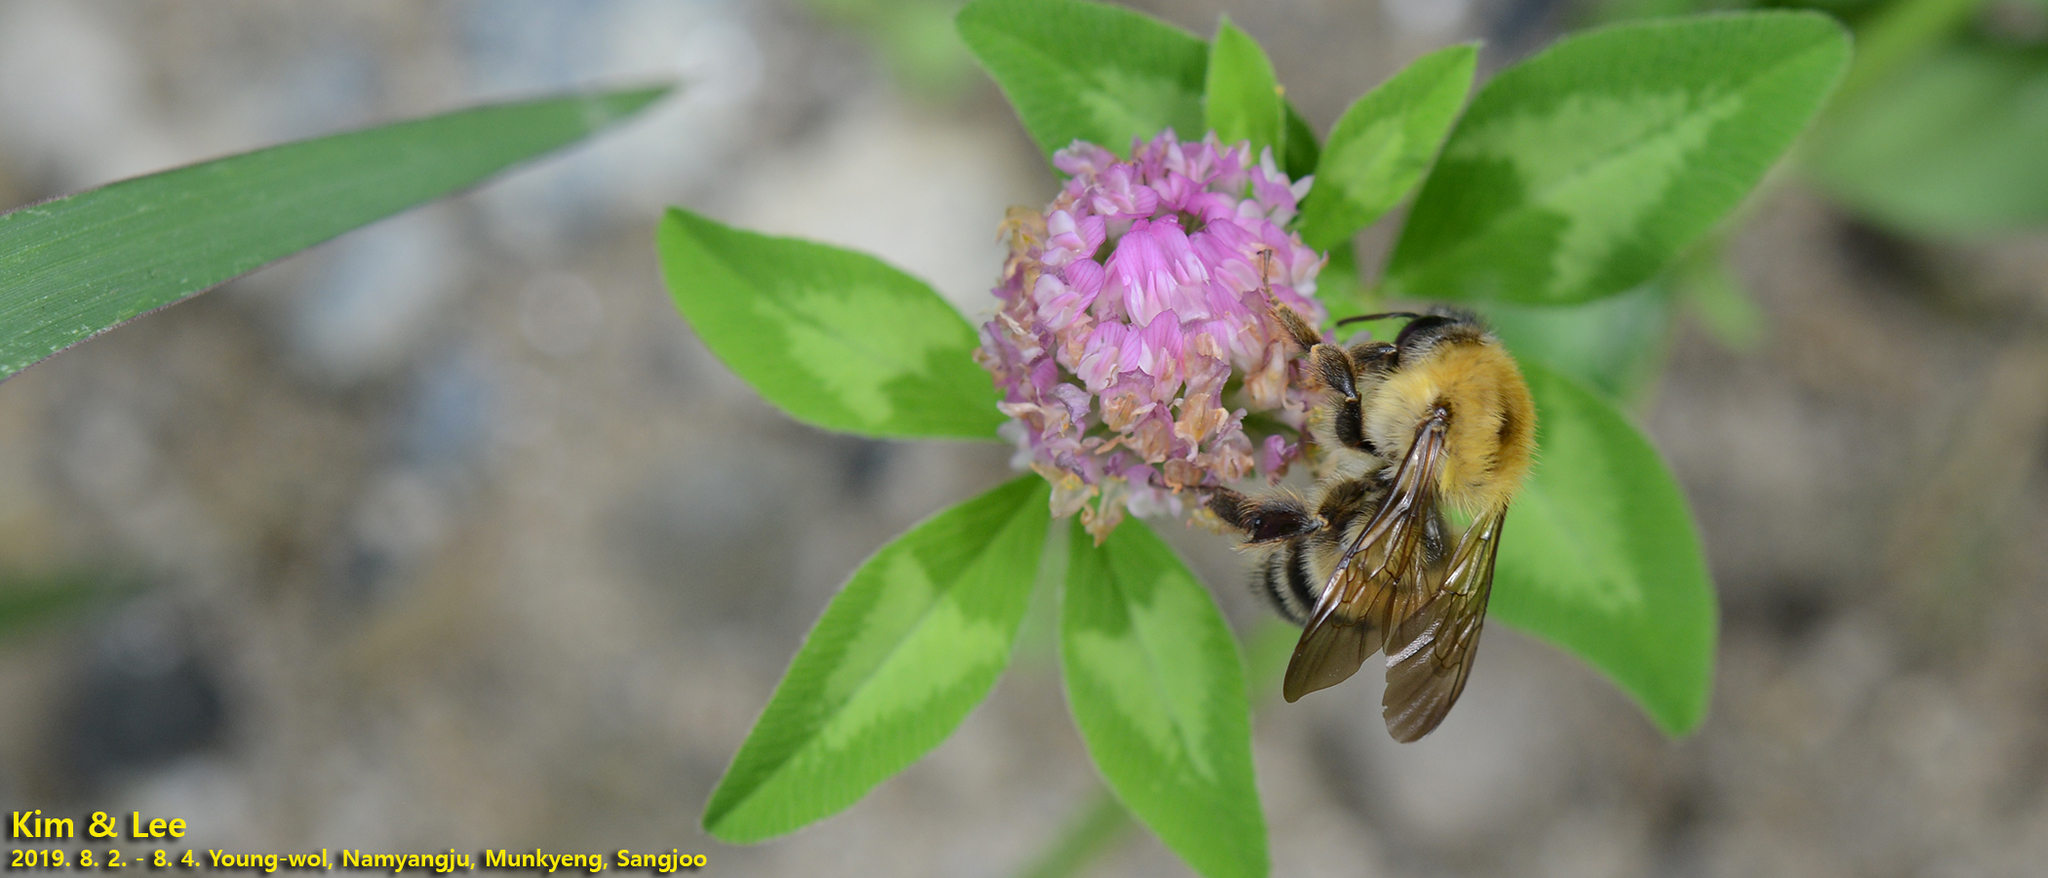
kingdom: Animalia
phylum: Arthropoda
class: Insecta
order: Hymenoptera
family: Apidae
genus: Bombus
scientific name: Bombus ussurensis
